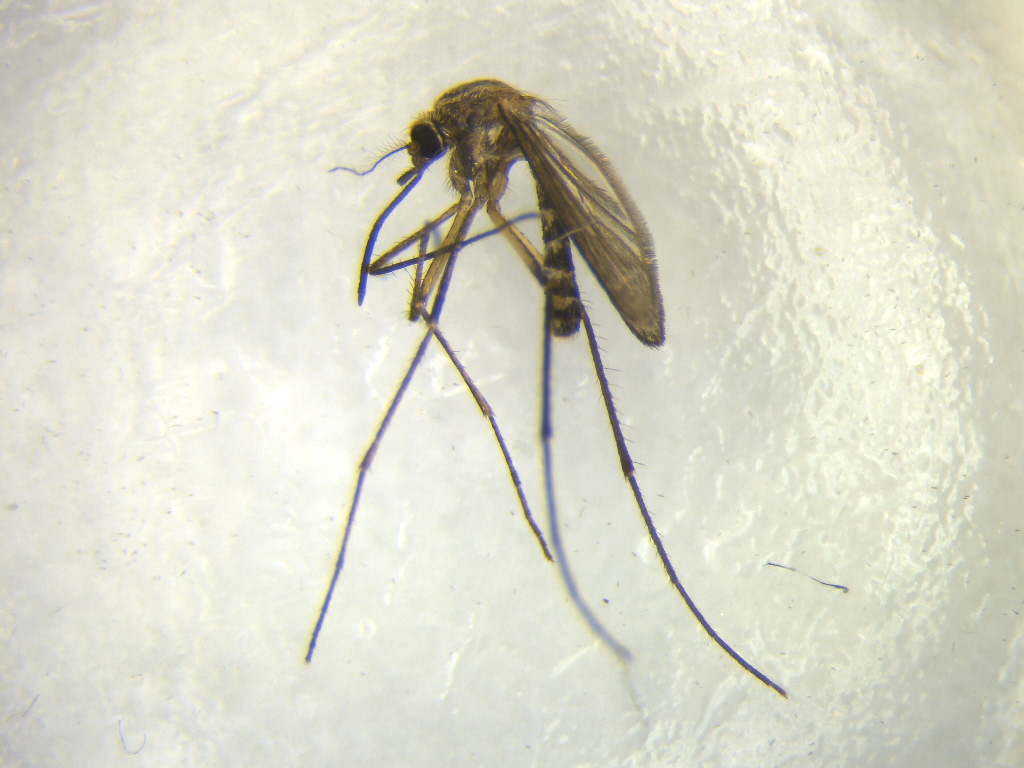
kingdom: Animalia
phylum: Arthropoda
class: Insecta
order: Diptera
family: Culicidae
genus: Coquillettidia
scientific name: Coquillettidia iracunda
